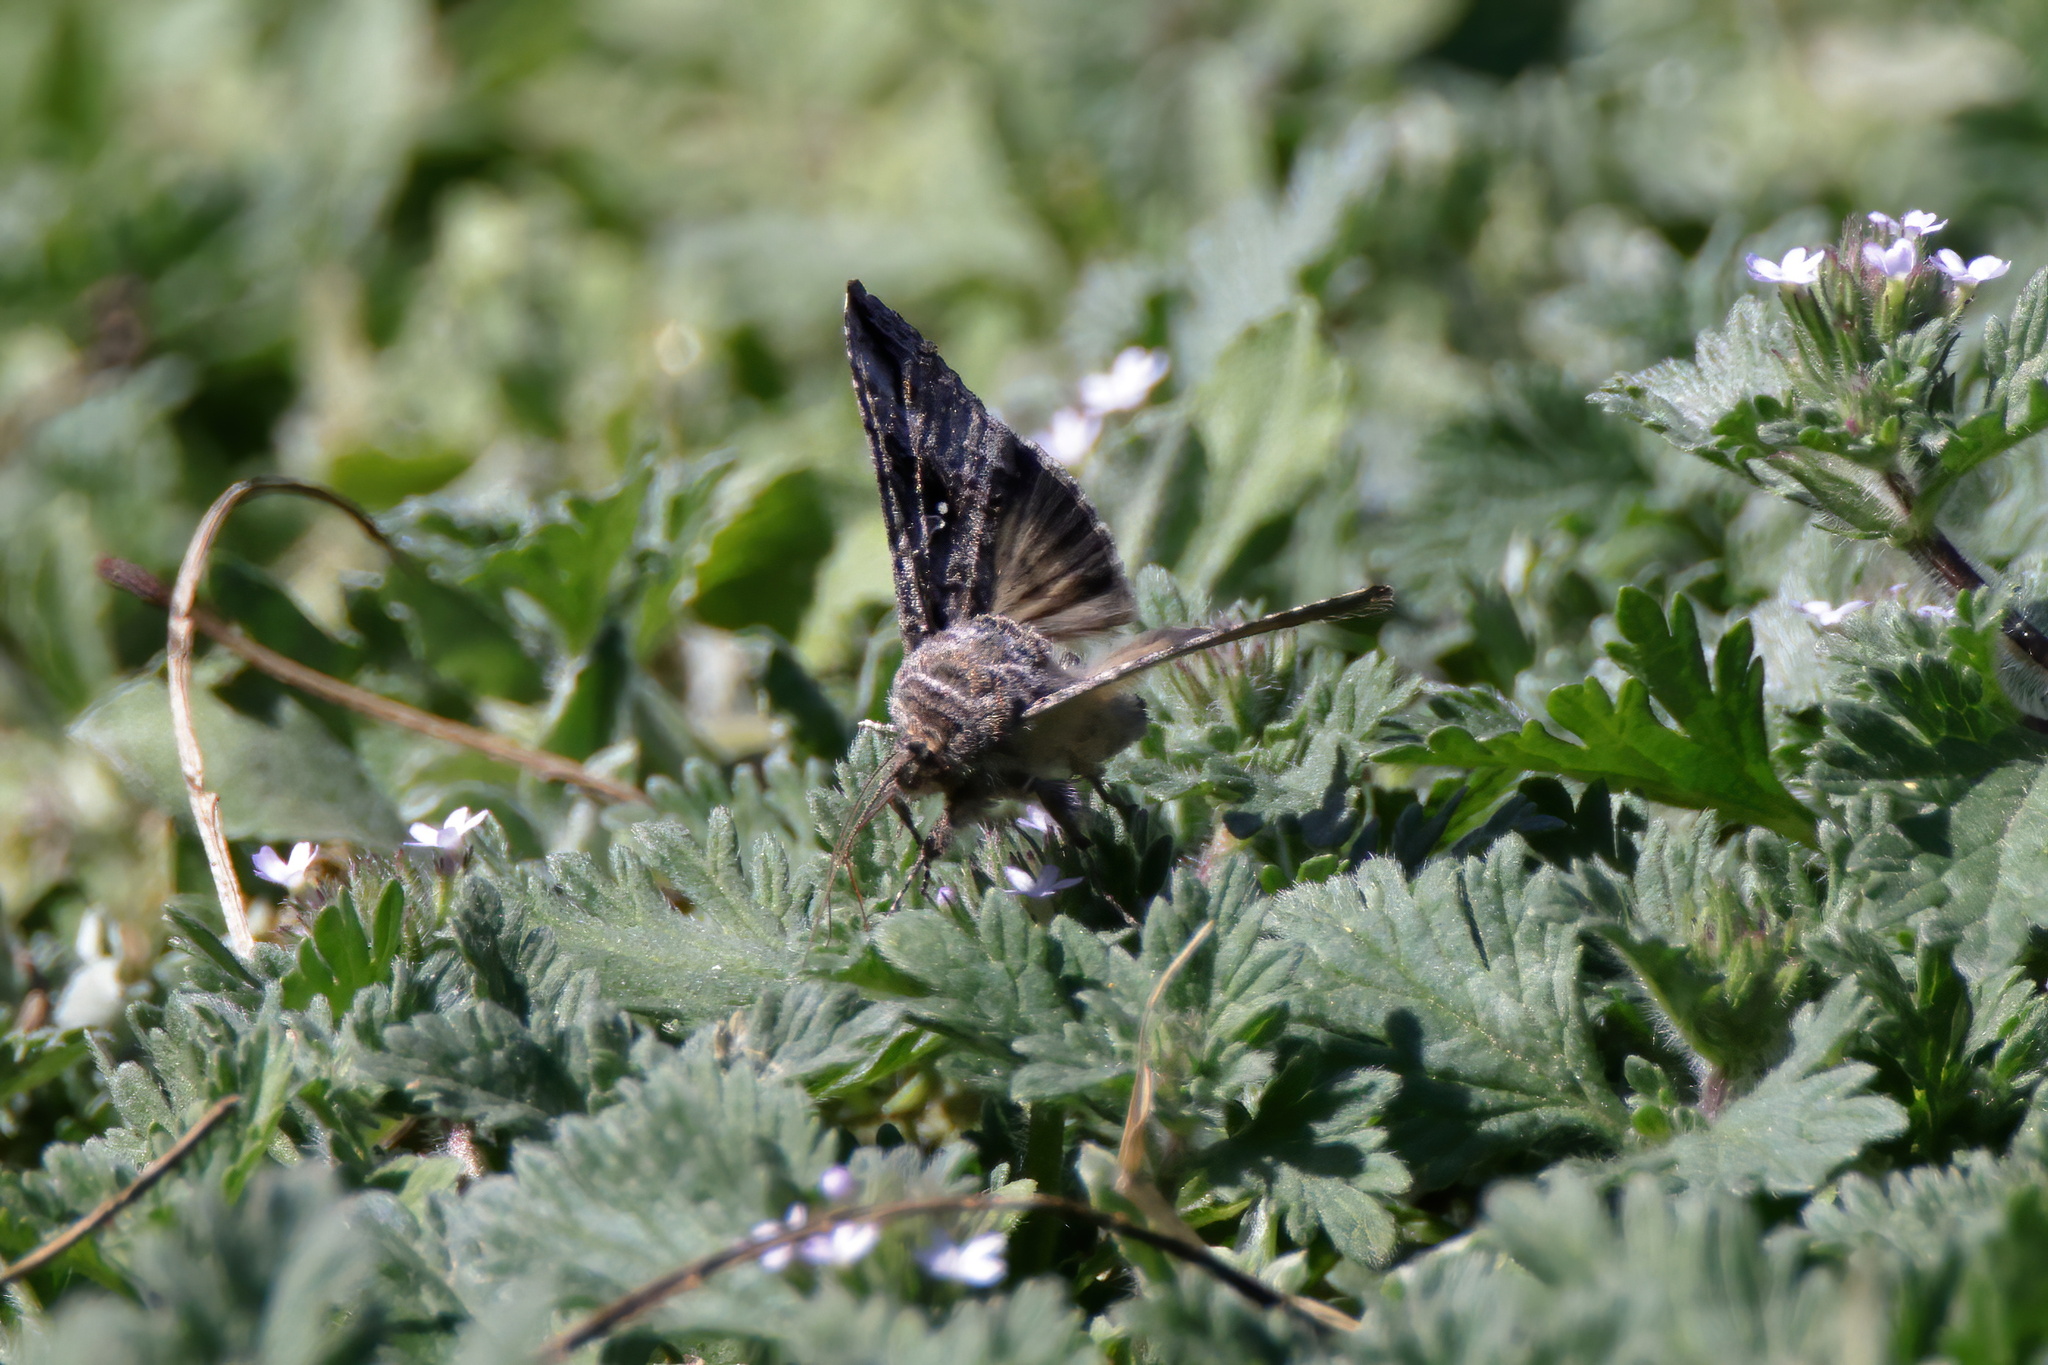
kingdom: Animalia
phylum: Arthropoda
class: Insecta
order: Lepidoptera
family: Noctuidae
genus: Rachiplusia
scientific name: Rachiplusia ou
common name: Gray looper moth
